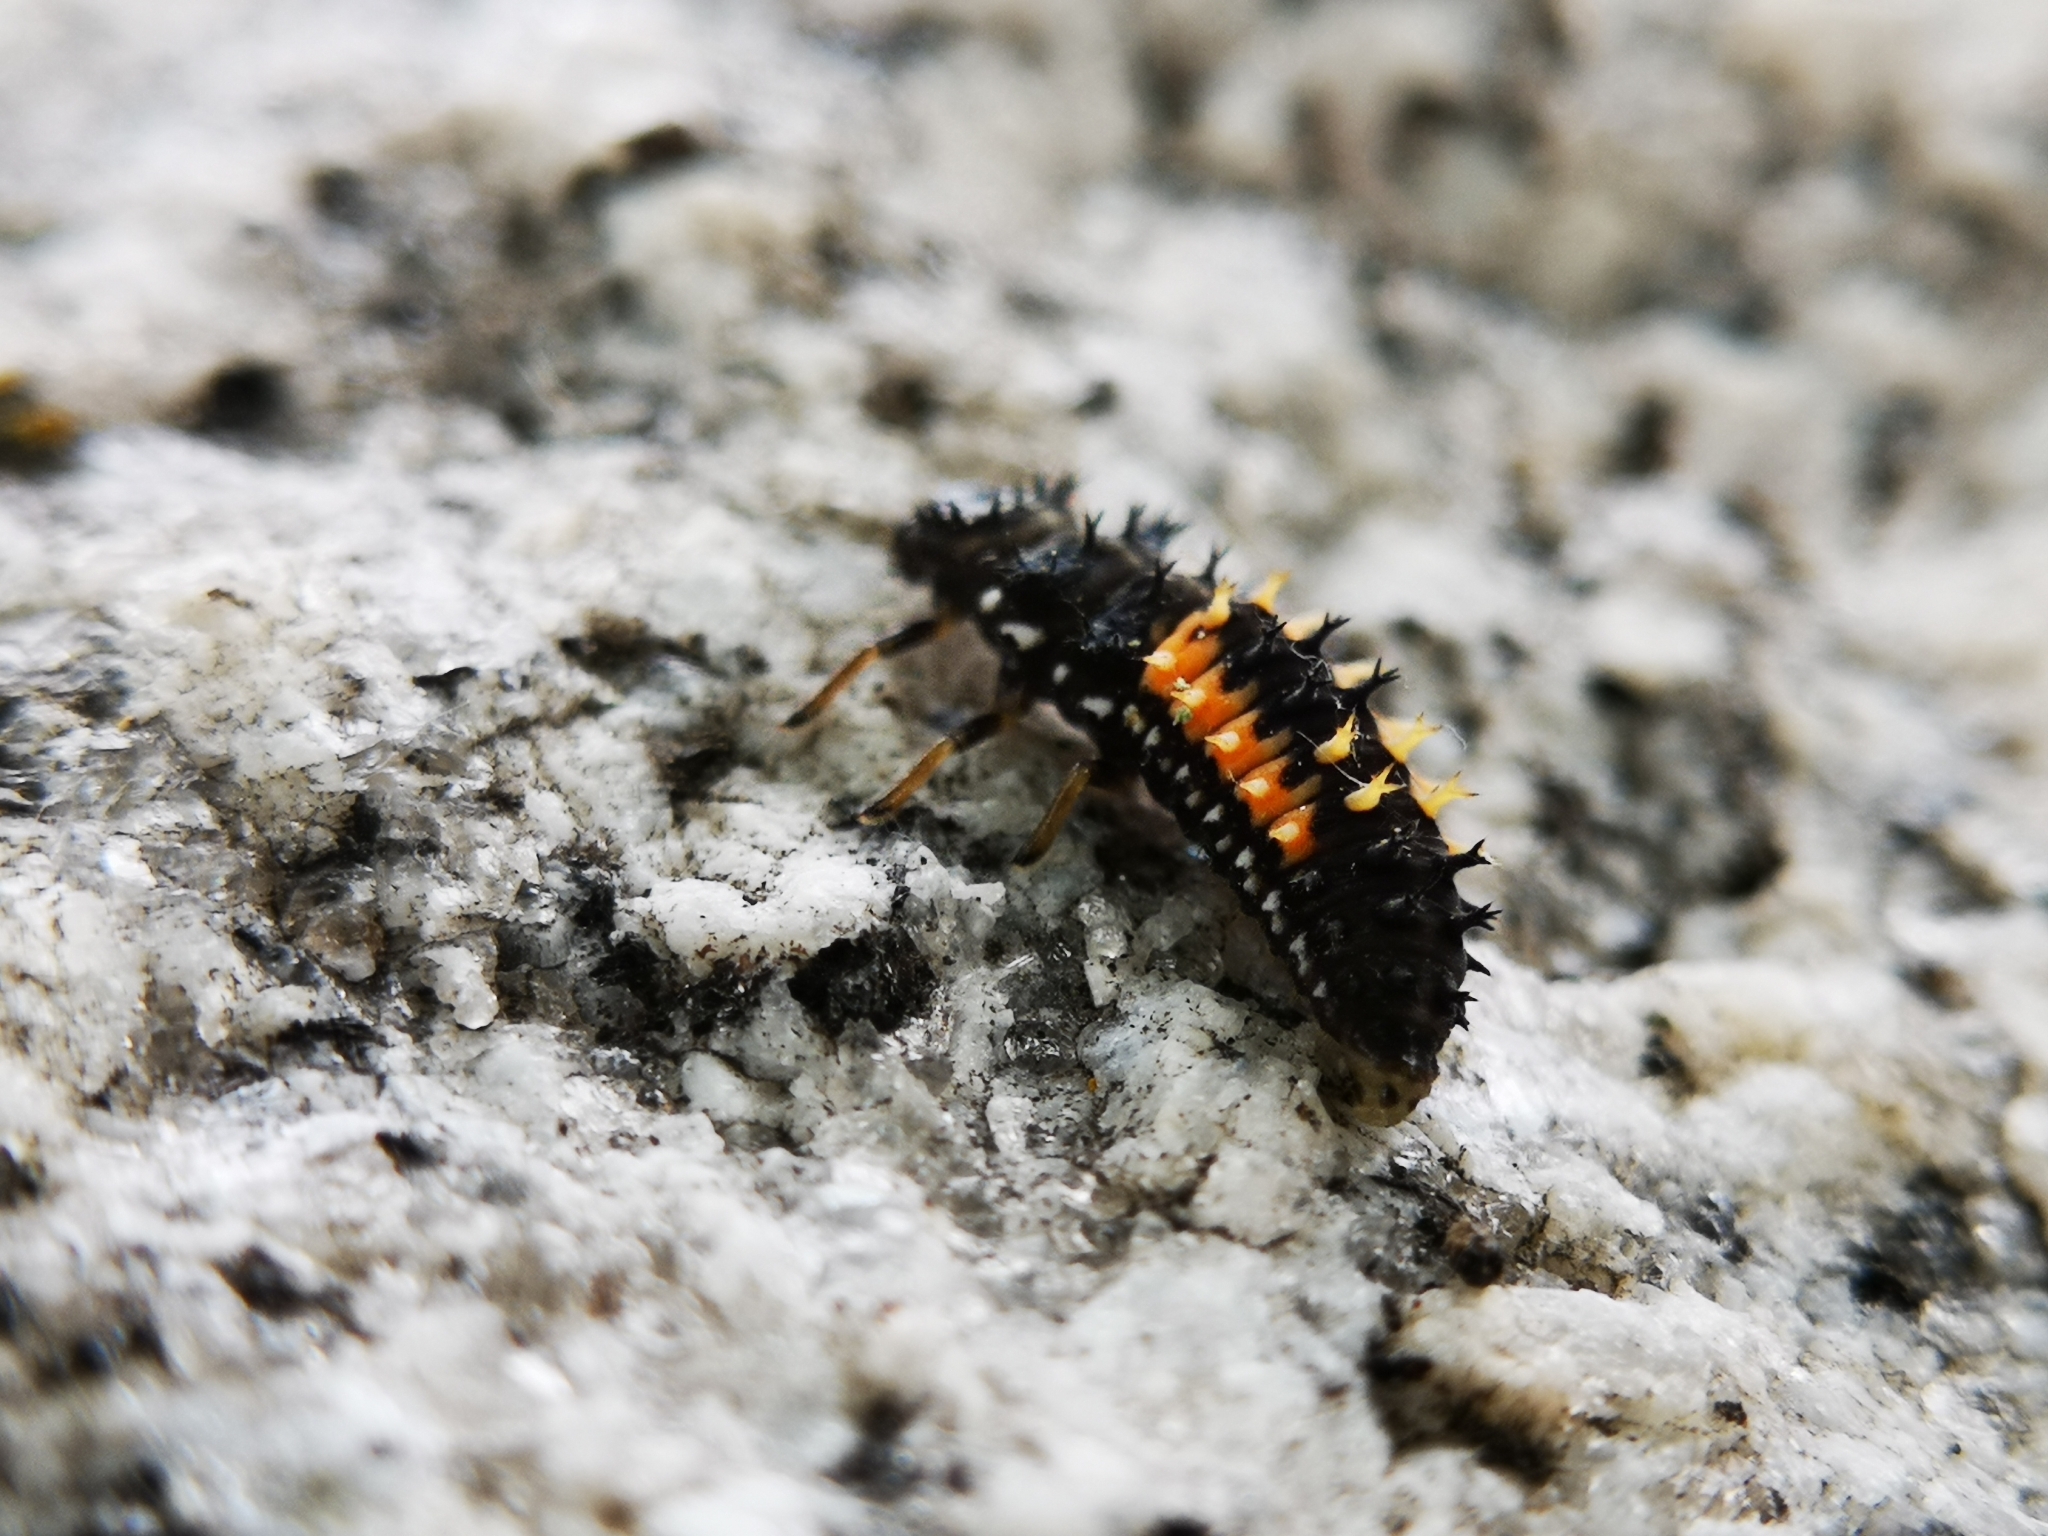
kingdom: Animalia
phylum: Arthropoda
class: Insecta
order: Coleoptera
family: Coccinellidae
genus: Harmonia
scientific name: Harmonia axyridis
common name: Harlequin ladybird
